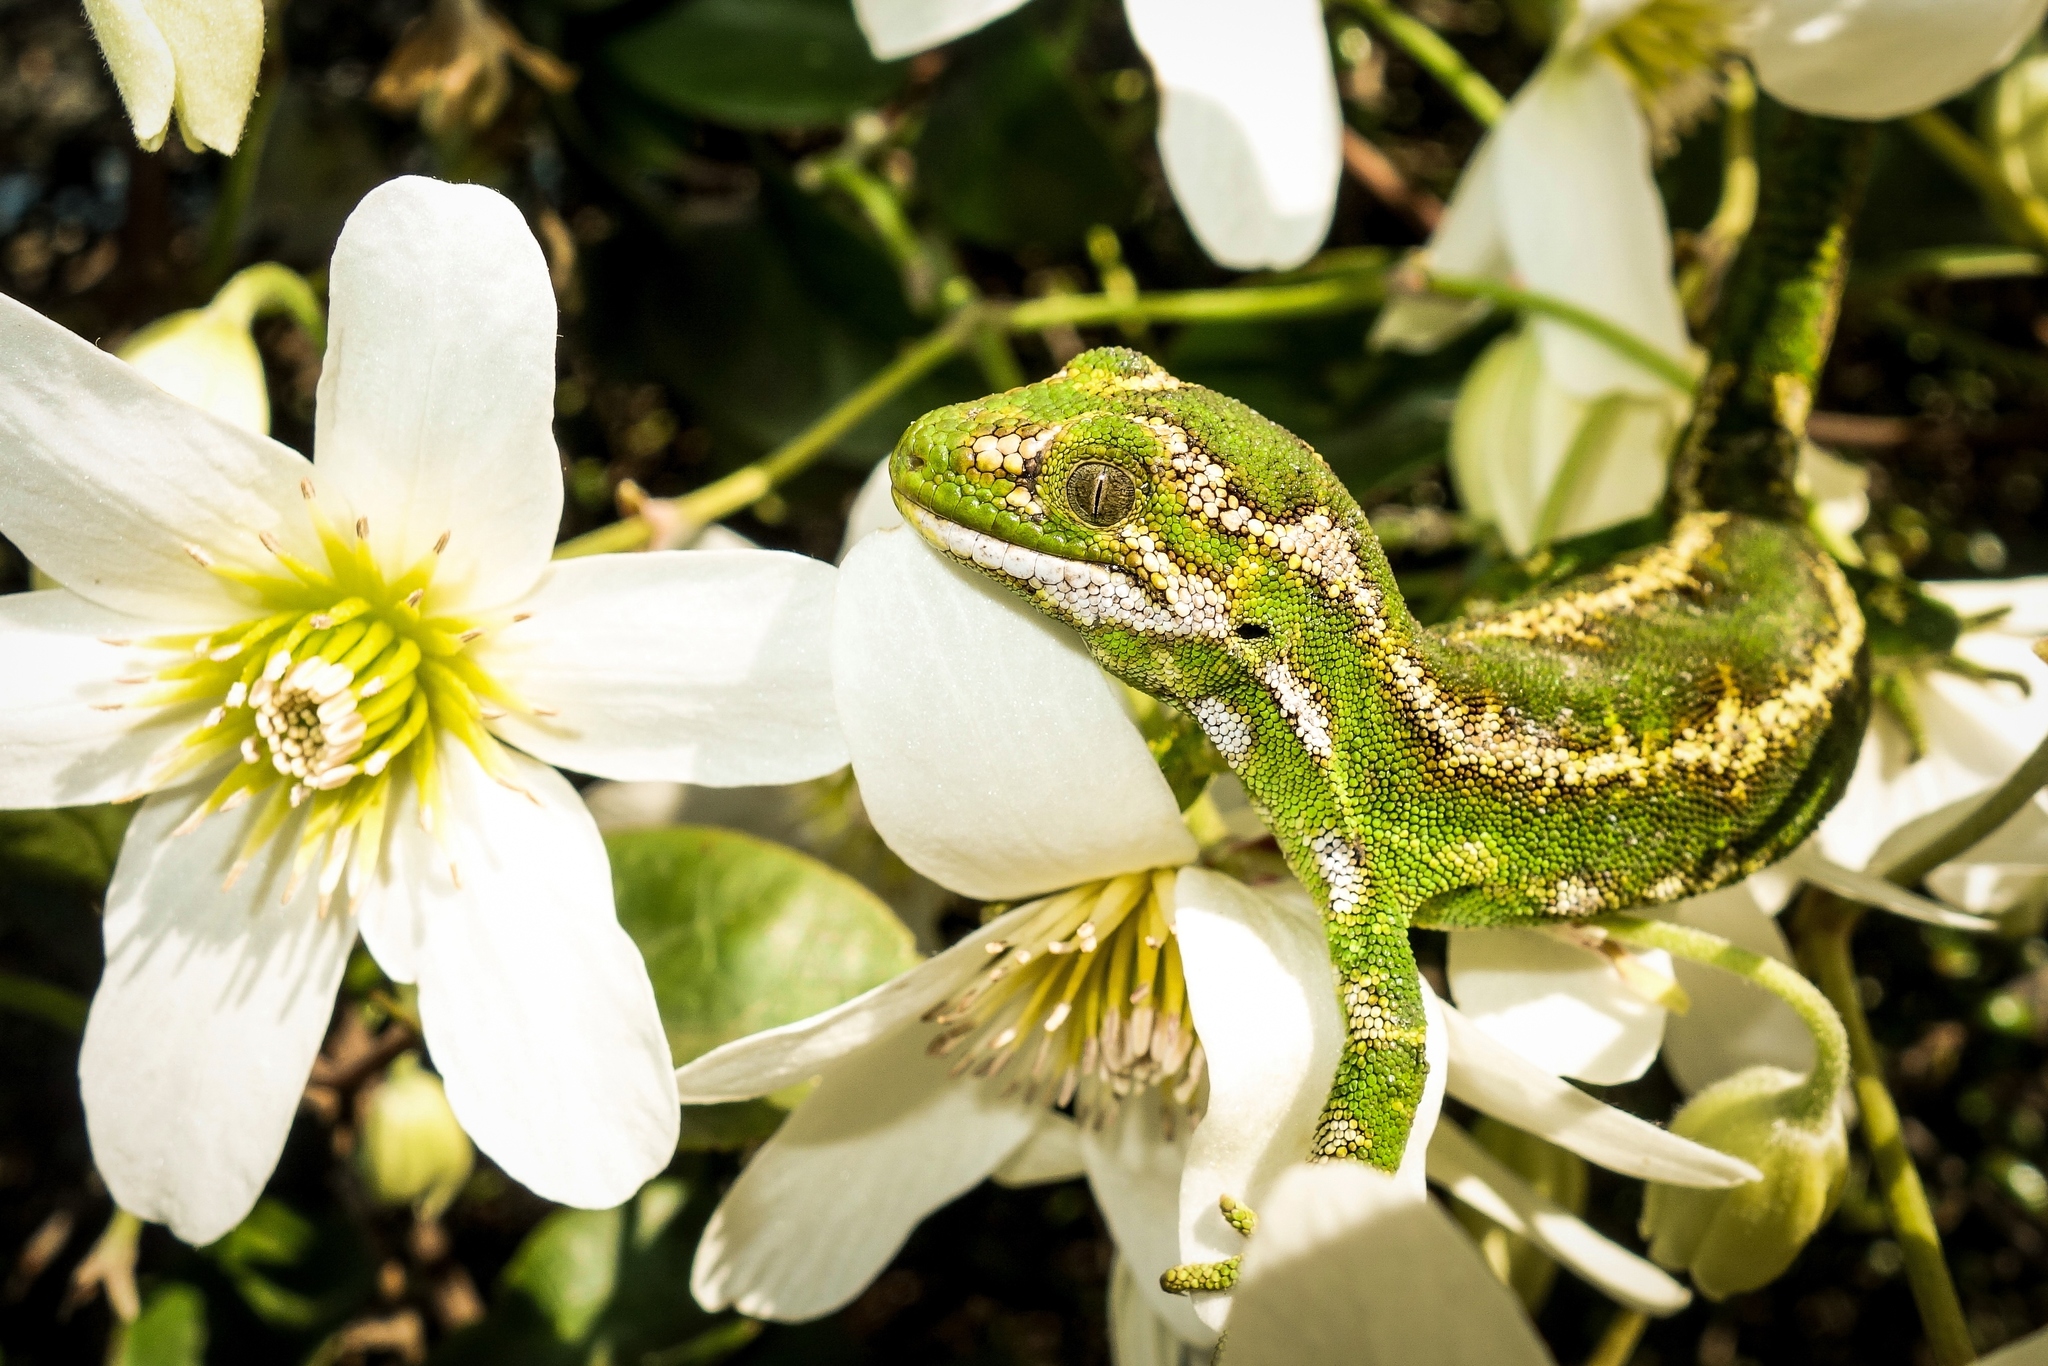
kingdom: Animalia
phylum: Chordata
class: Squamata
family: Diplodactylidae
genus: Naultinus
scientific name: Naultinus gemmeus
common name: Jewelled gecko
